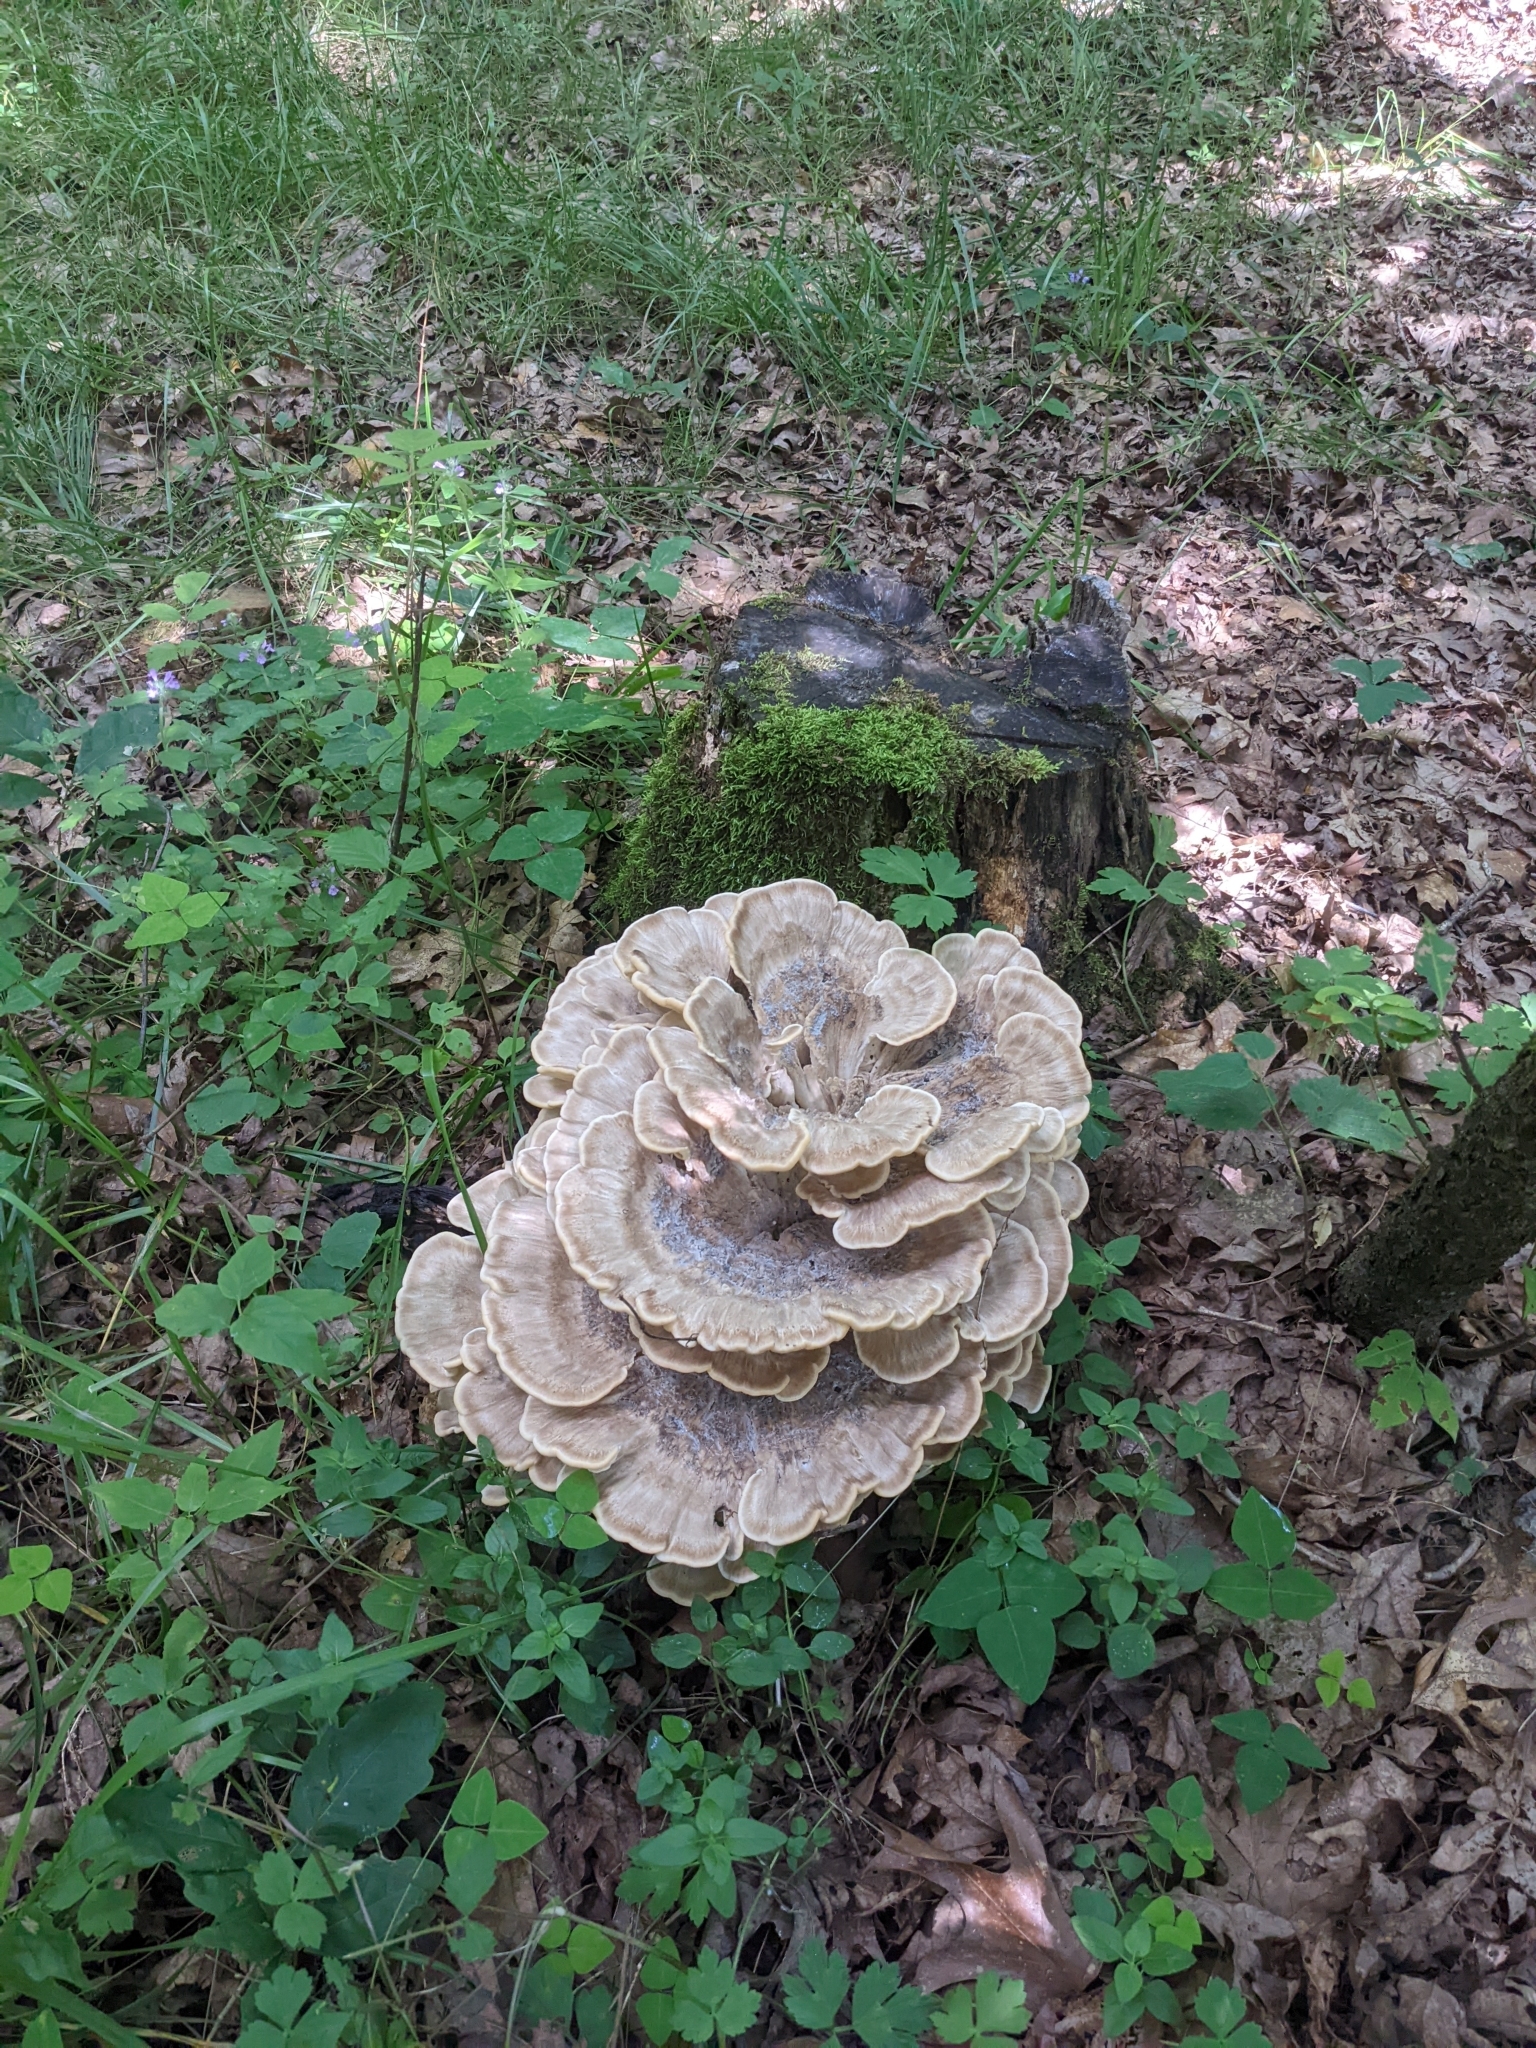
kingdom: Fungi
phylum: Basidiomycota
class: Agaricomycetes
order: Polyporales
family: Meripilaceae
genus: Meripilus
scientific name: Meripilus sumstinei
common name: Black-staining polypore
